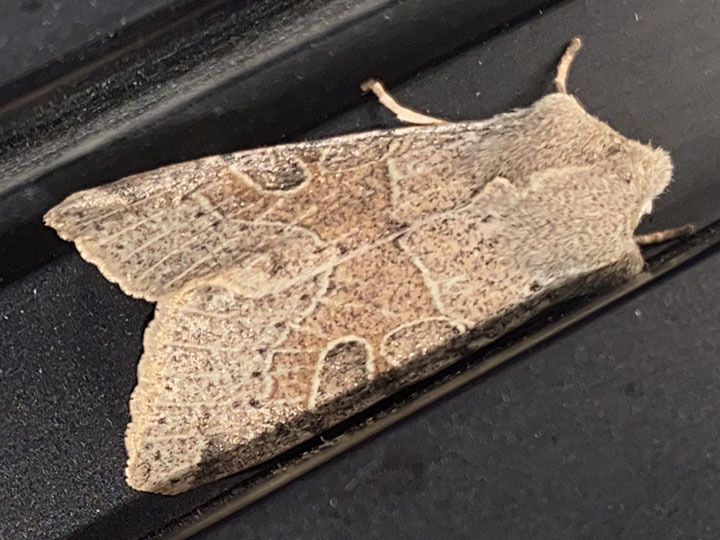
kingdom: Animalia
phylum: Arthropoda
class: Insecta
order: Lepidoptera
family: Noctuidae
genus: Orthosia
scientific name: Orthosia behrensiana
